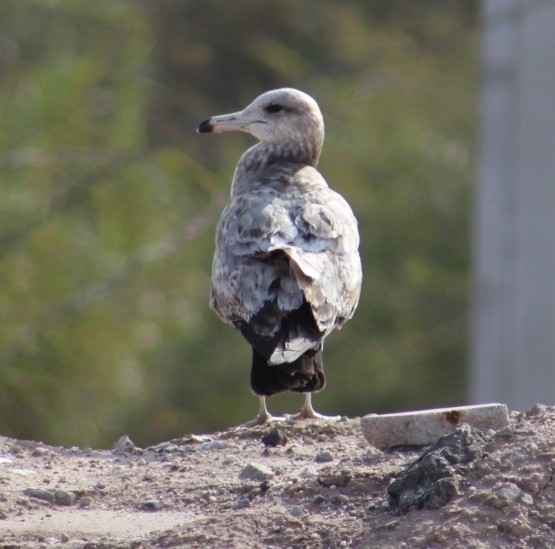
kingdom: Animalia
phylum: Chordata
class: Aves
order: Charadriiformes
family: Laridae
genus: Larus
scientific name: Larus californicus
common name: California gull
